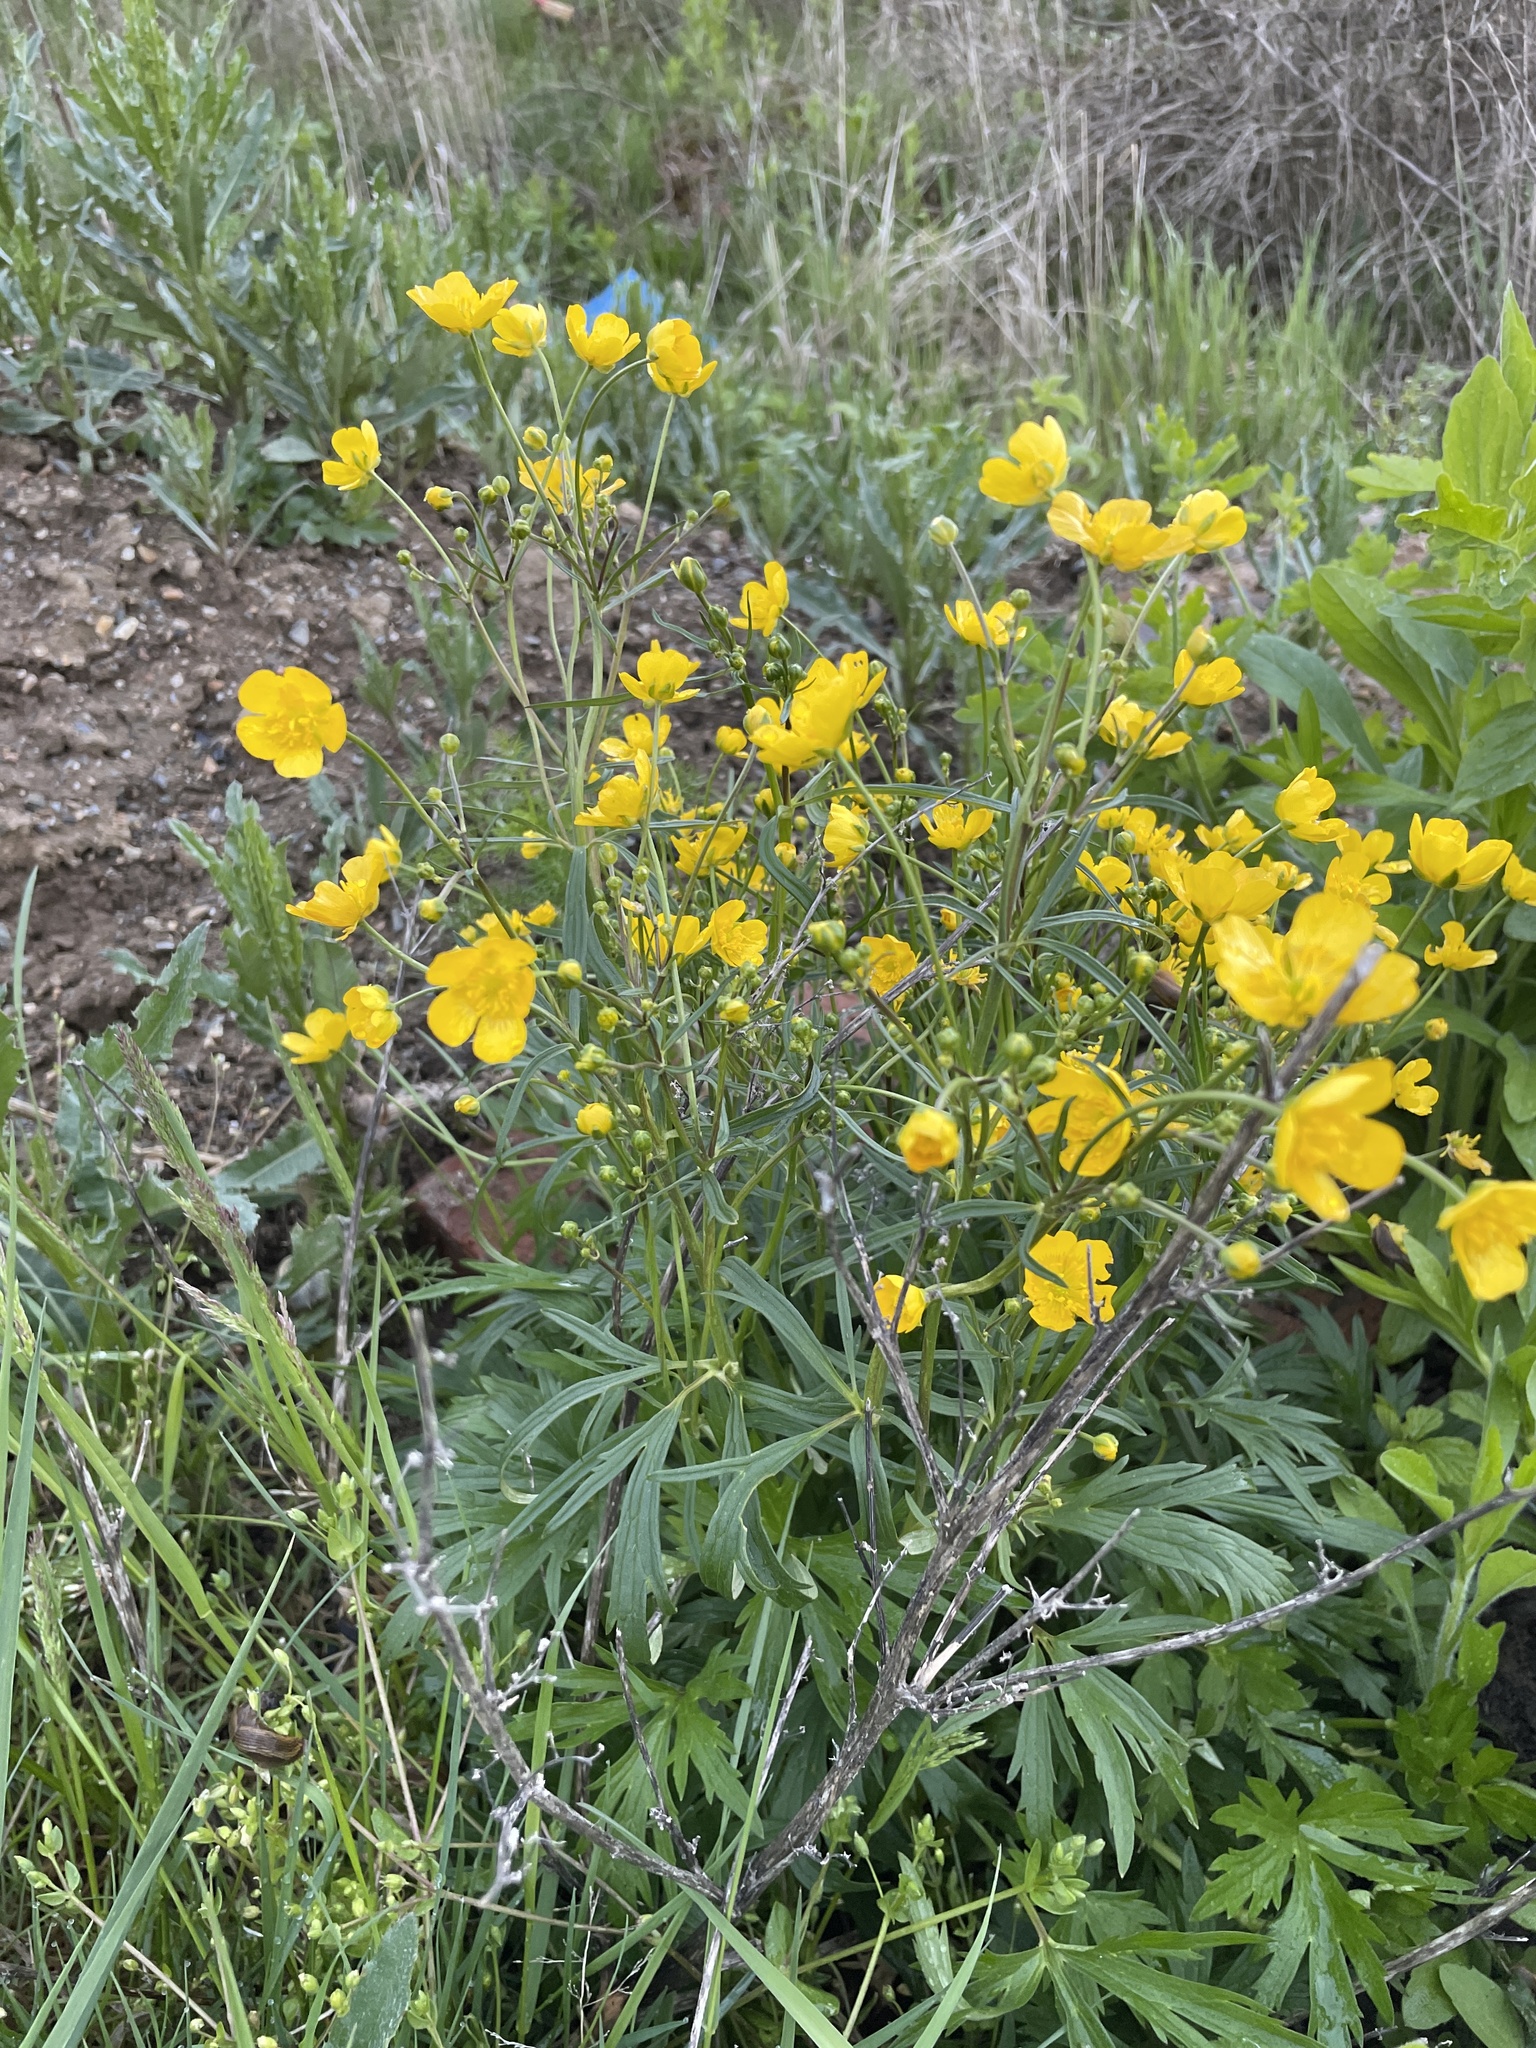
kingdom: Plantae
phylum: Tracheophyta
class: Magnoliopsida
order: Ranunculales
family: Ranunculaceae
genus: Ranunculus
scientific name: Ranunculus acris
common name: Meadow buttercup
